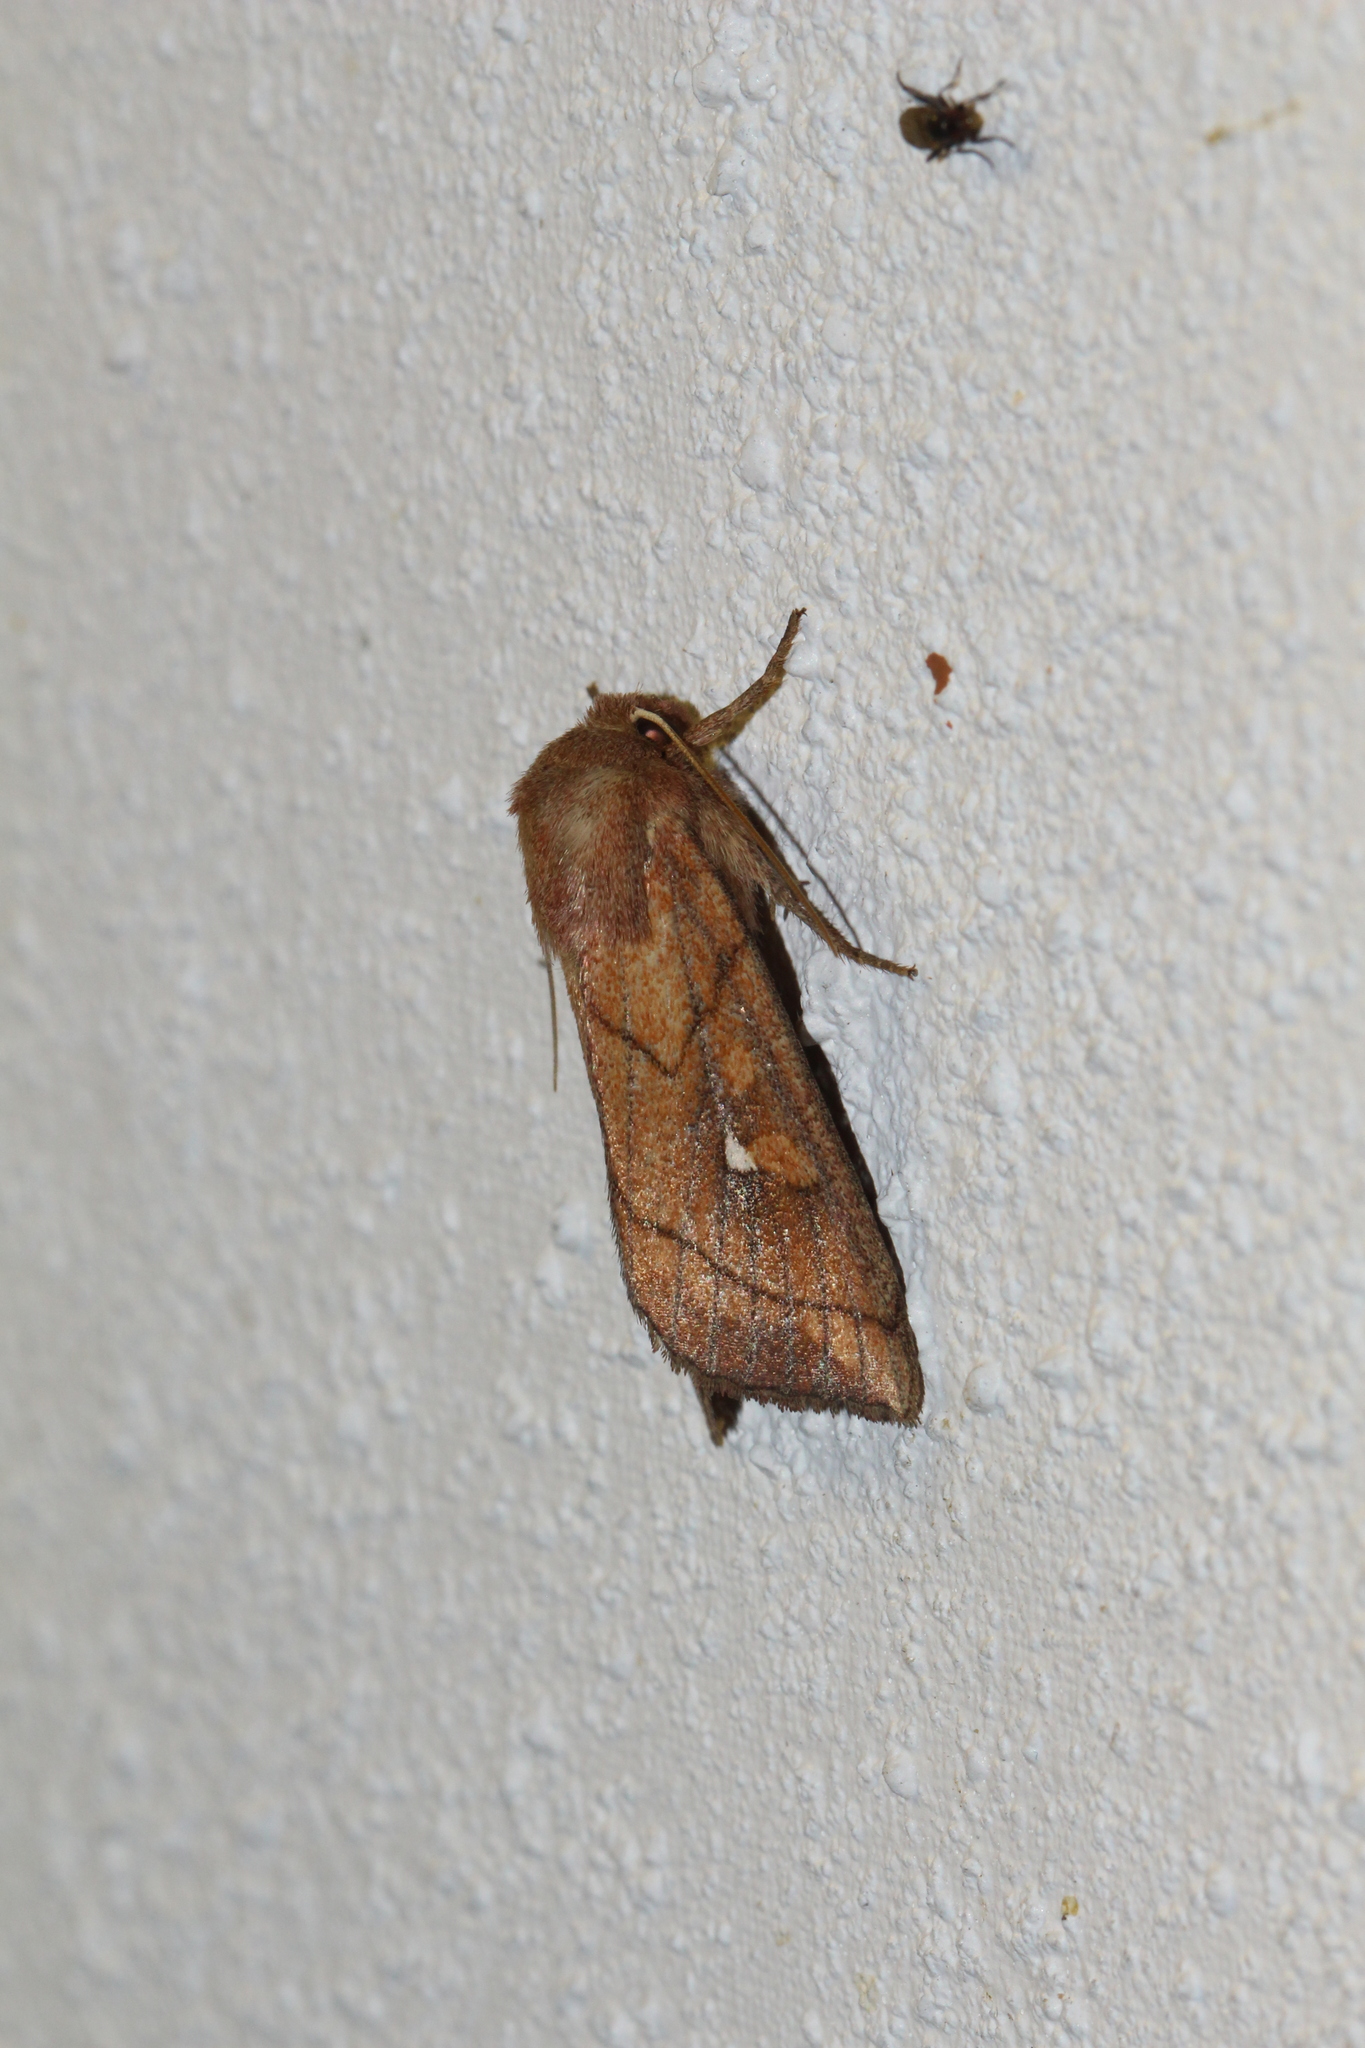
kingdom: Animalia
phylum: Arthropoda
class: Insecta
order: Lepidoptera
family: Noctuidae
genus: Mythimna
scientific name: Mythimna conigera
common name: Brown-line bright-eye
